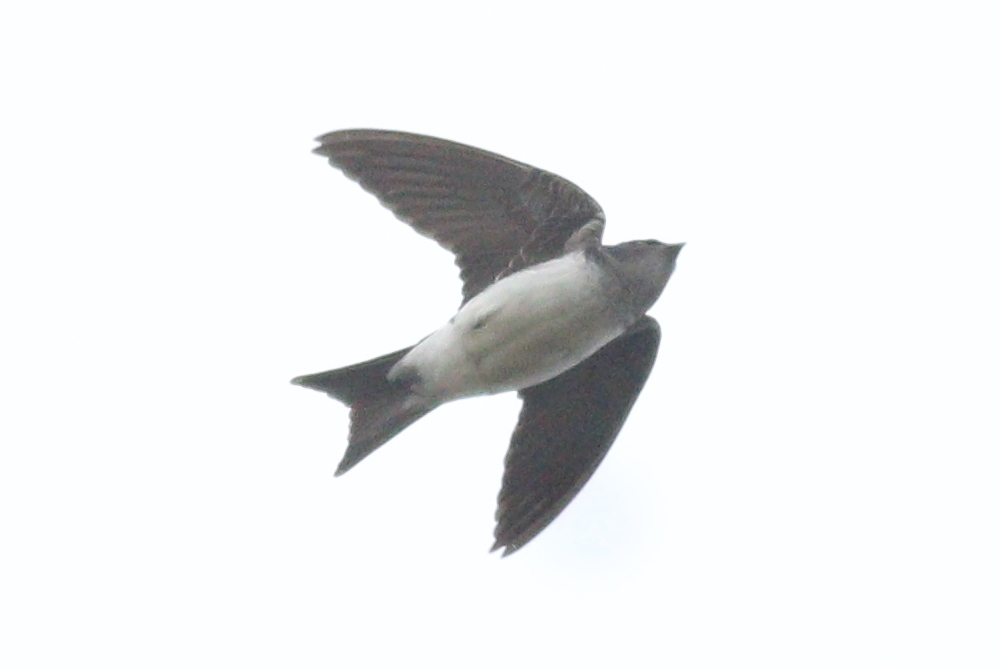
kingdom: Animalia
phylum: Chordata
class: Aves
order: Passeriformes
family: Hirundinidae
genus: Progne
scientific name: Progne chalybea
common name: Grey-breasted martin
